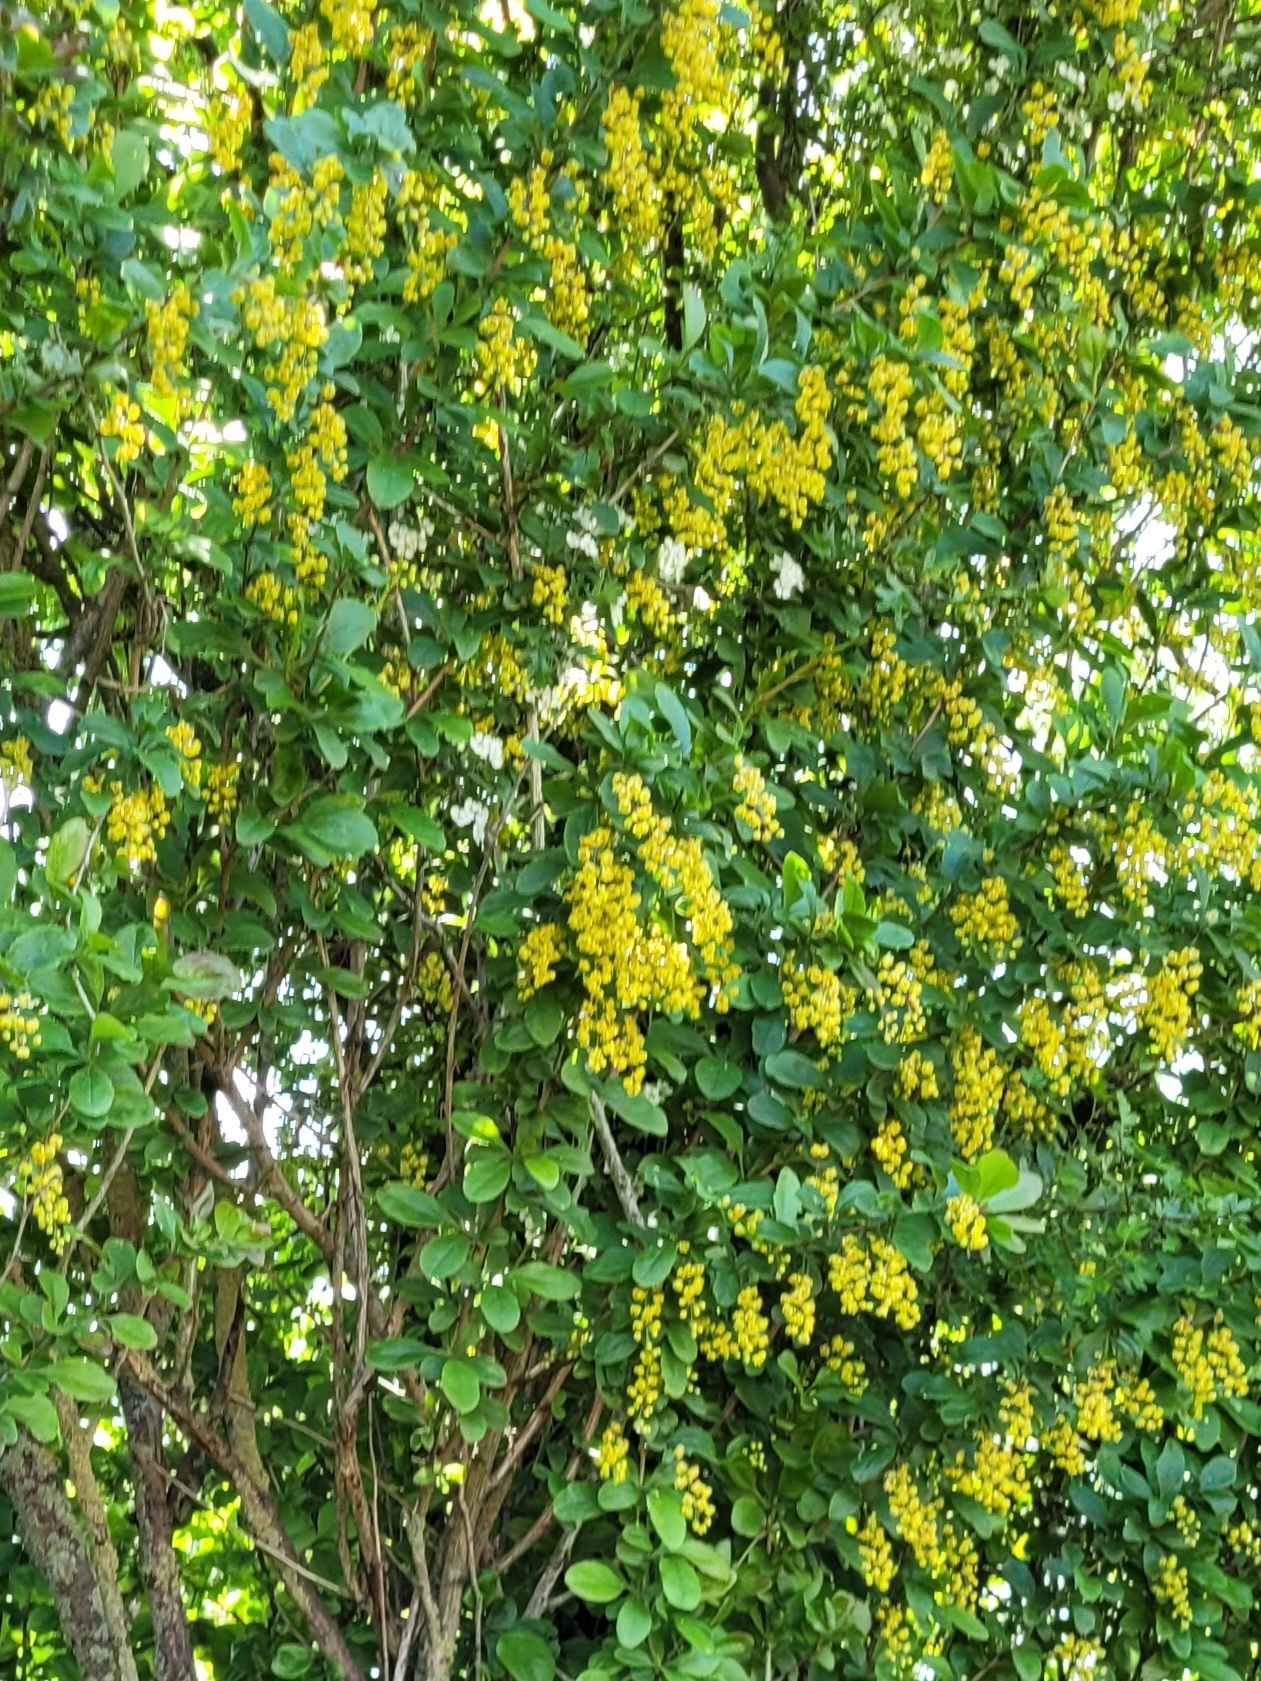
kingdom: Plantae
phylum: Tracheophyta
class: Magnoliopsida
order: Ranunculales
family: Berberidaceae
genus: Berberis
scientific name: Berberis vulgaris
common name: Barberry
